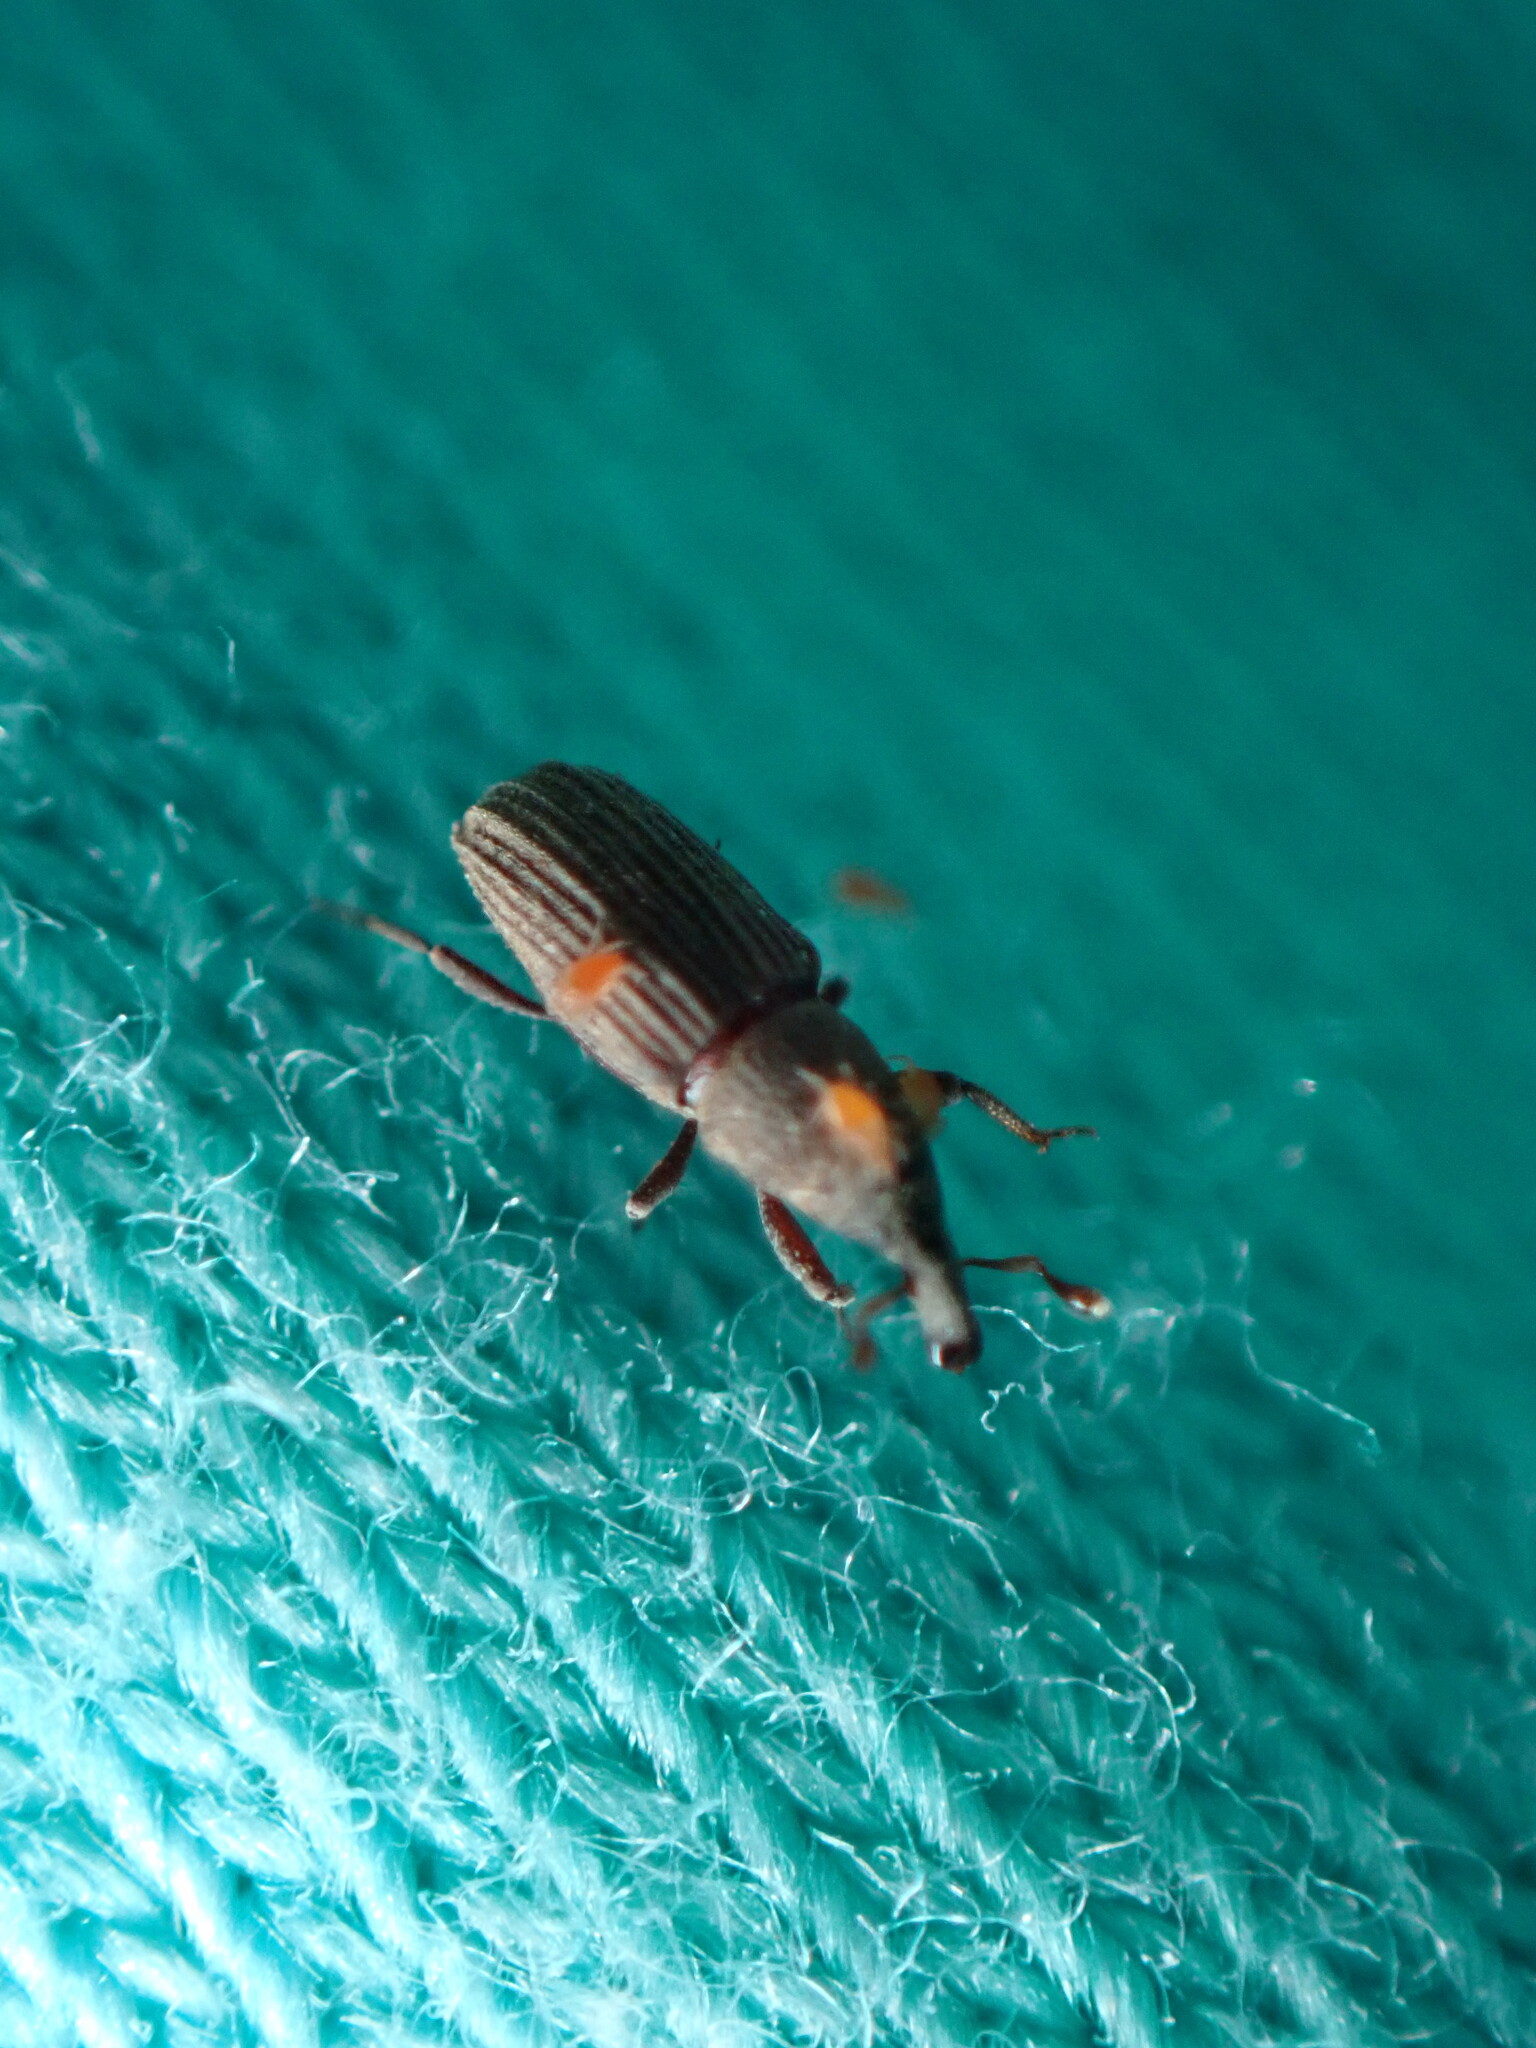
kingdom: Animalia
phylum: Arthropoda
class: Insecta
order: Coleoptera
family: Dryophthoridae
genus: Dryophthorus
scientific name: Dryophthorus americanus
